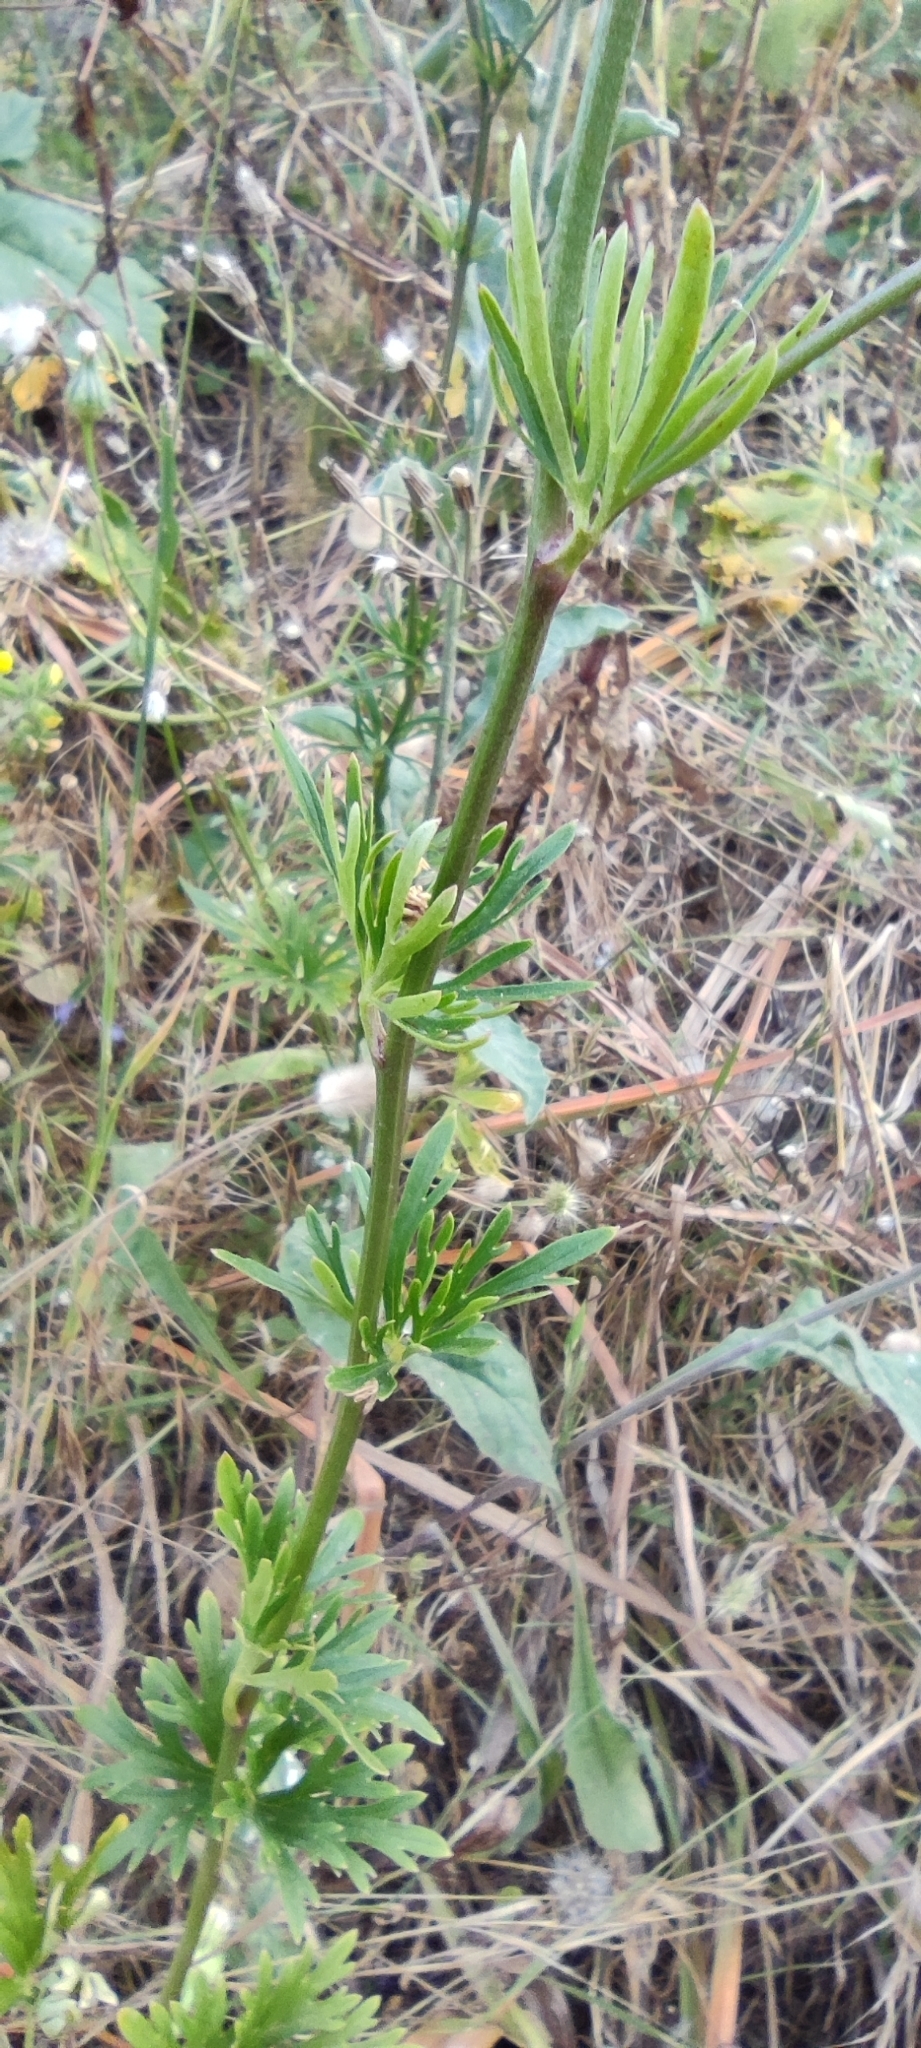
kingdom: Plantae
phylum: Tracheophyta
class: Magnoliopsida
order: Ranunculales
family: Ranunculaceae
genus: Delphinium
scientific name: Delphinium pentagynum
